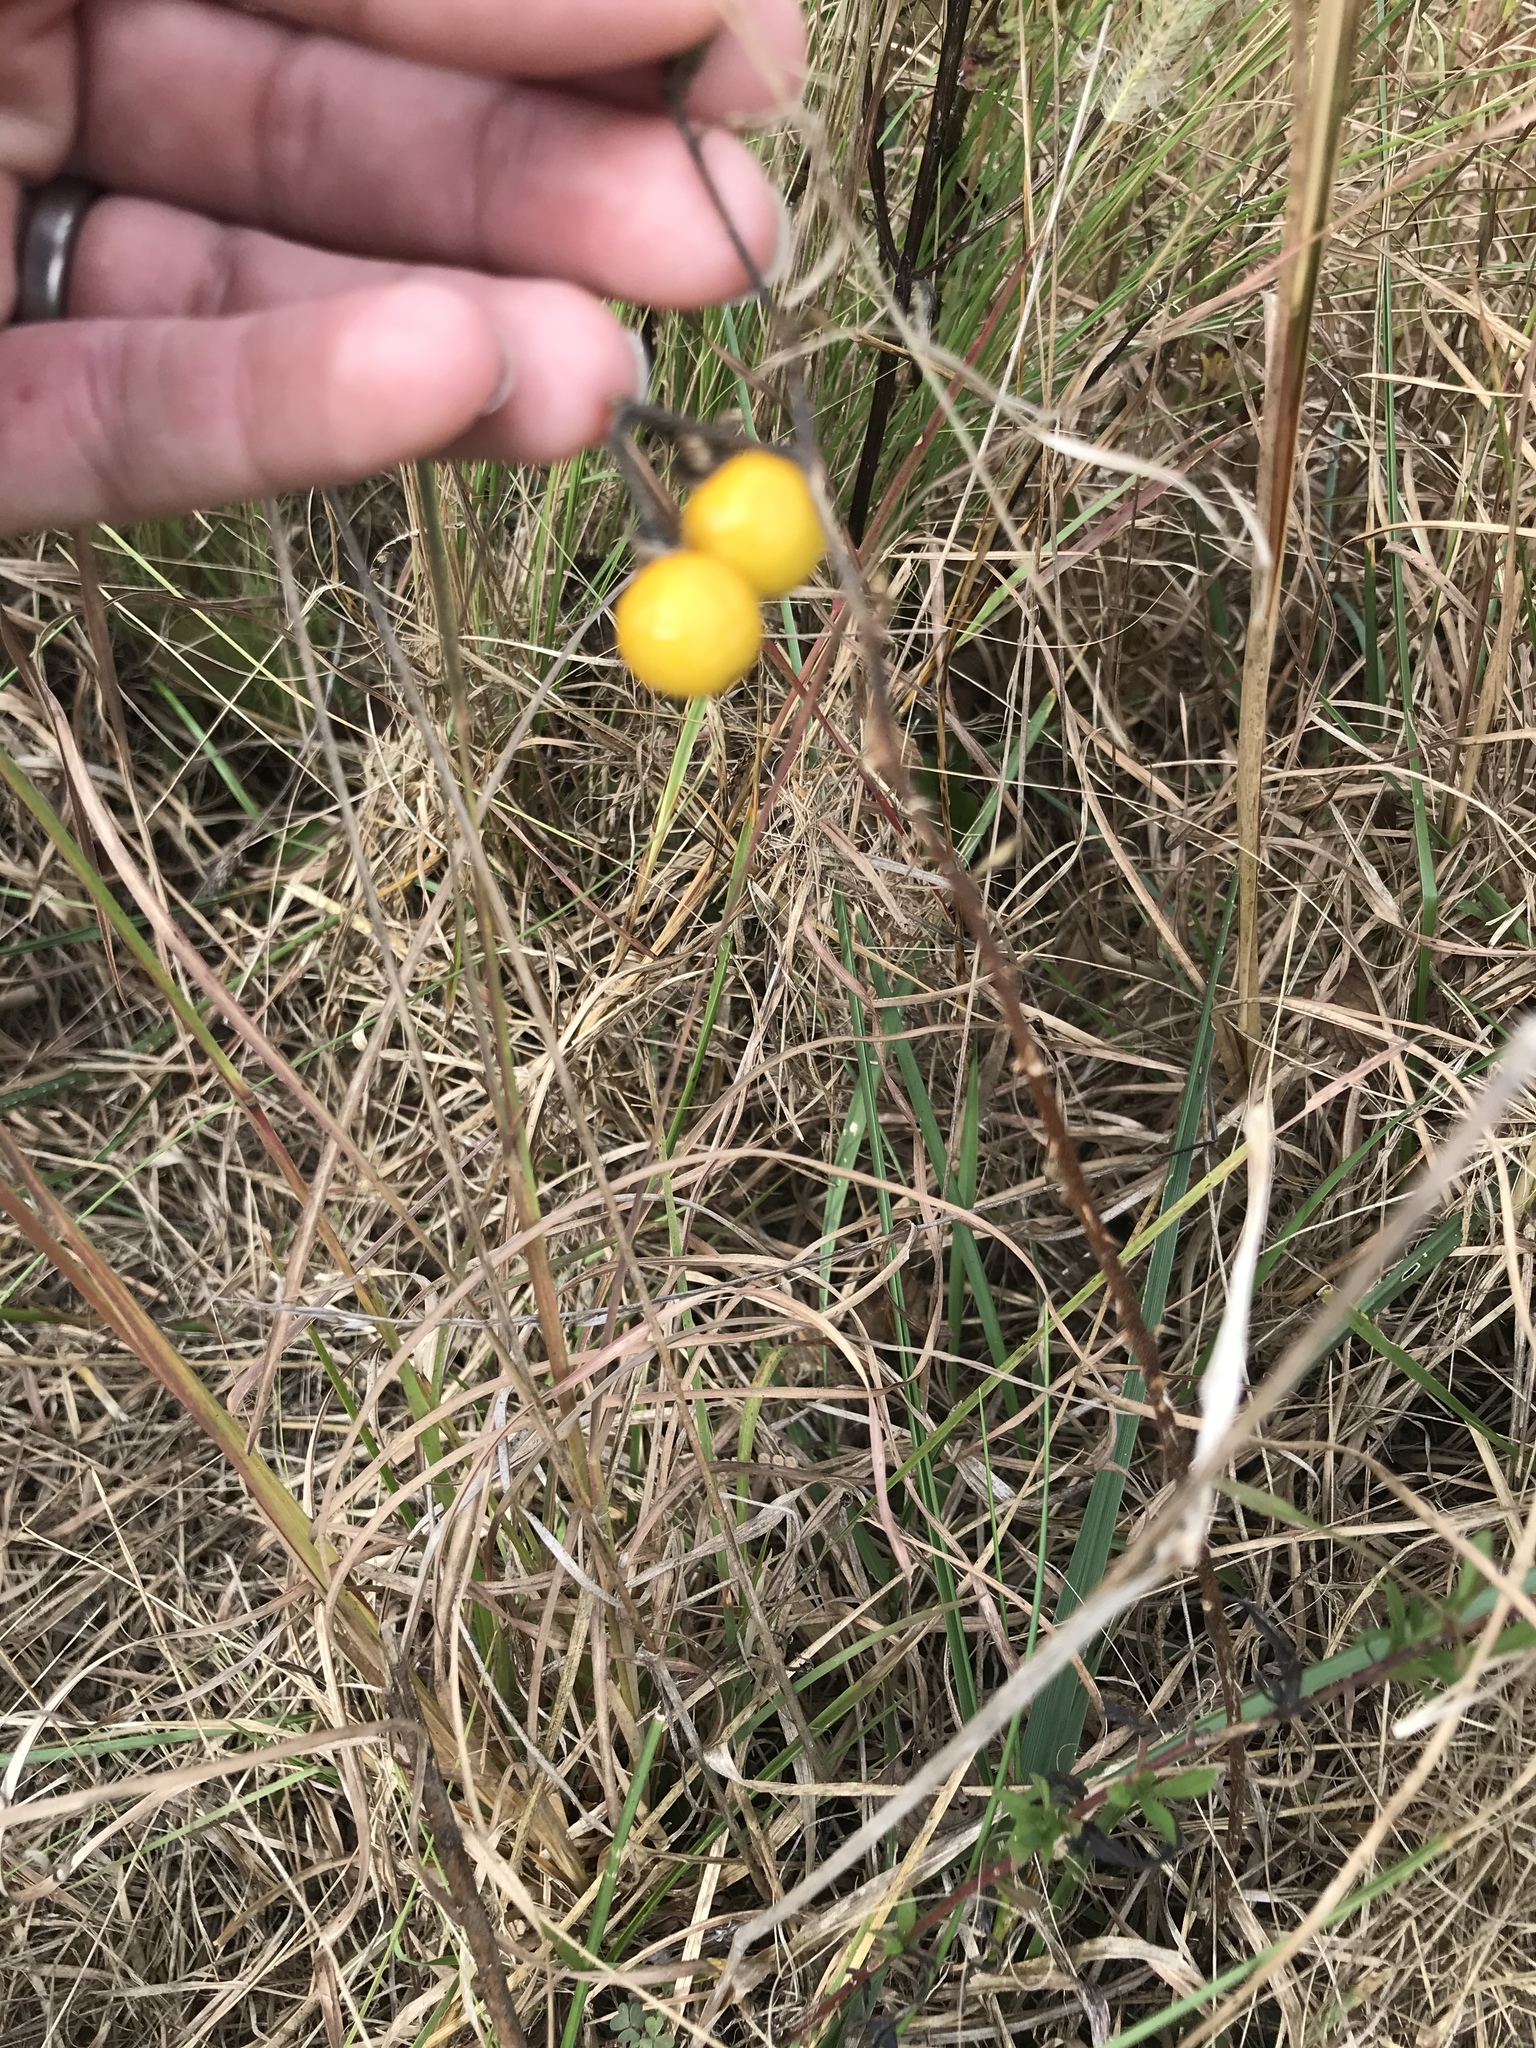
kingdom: Plantae
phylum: Tracheophyta
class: Magnoliopsida
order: Solanales
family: Solanaceae
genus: Solanum
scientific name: Solanum carolinense
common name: Horse-nettle
